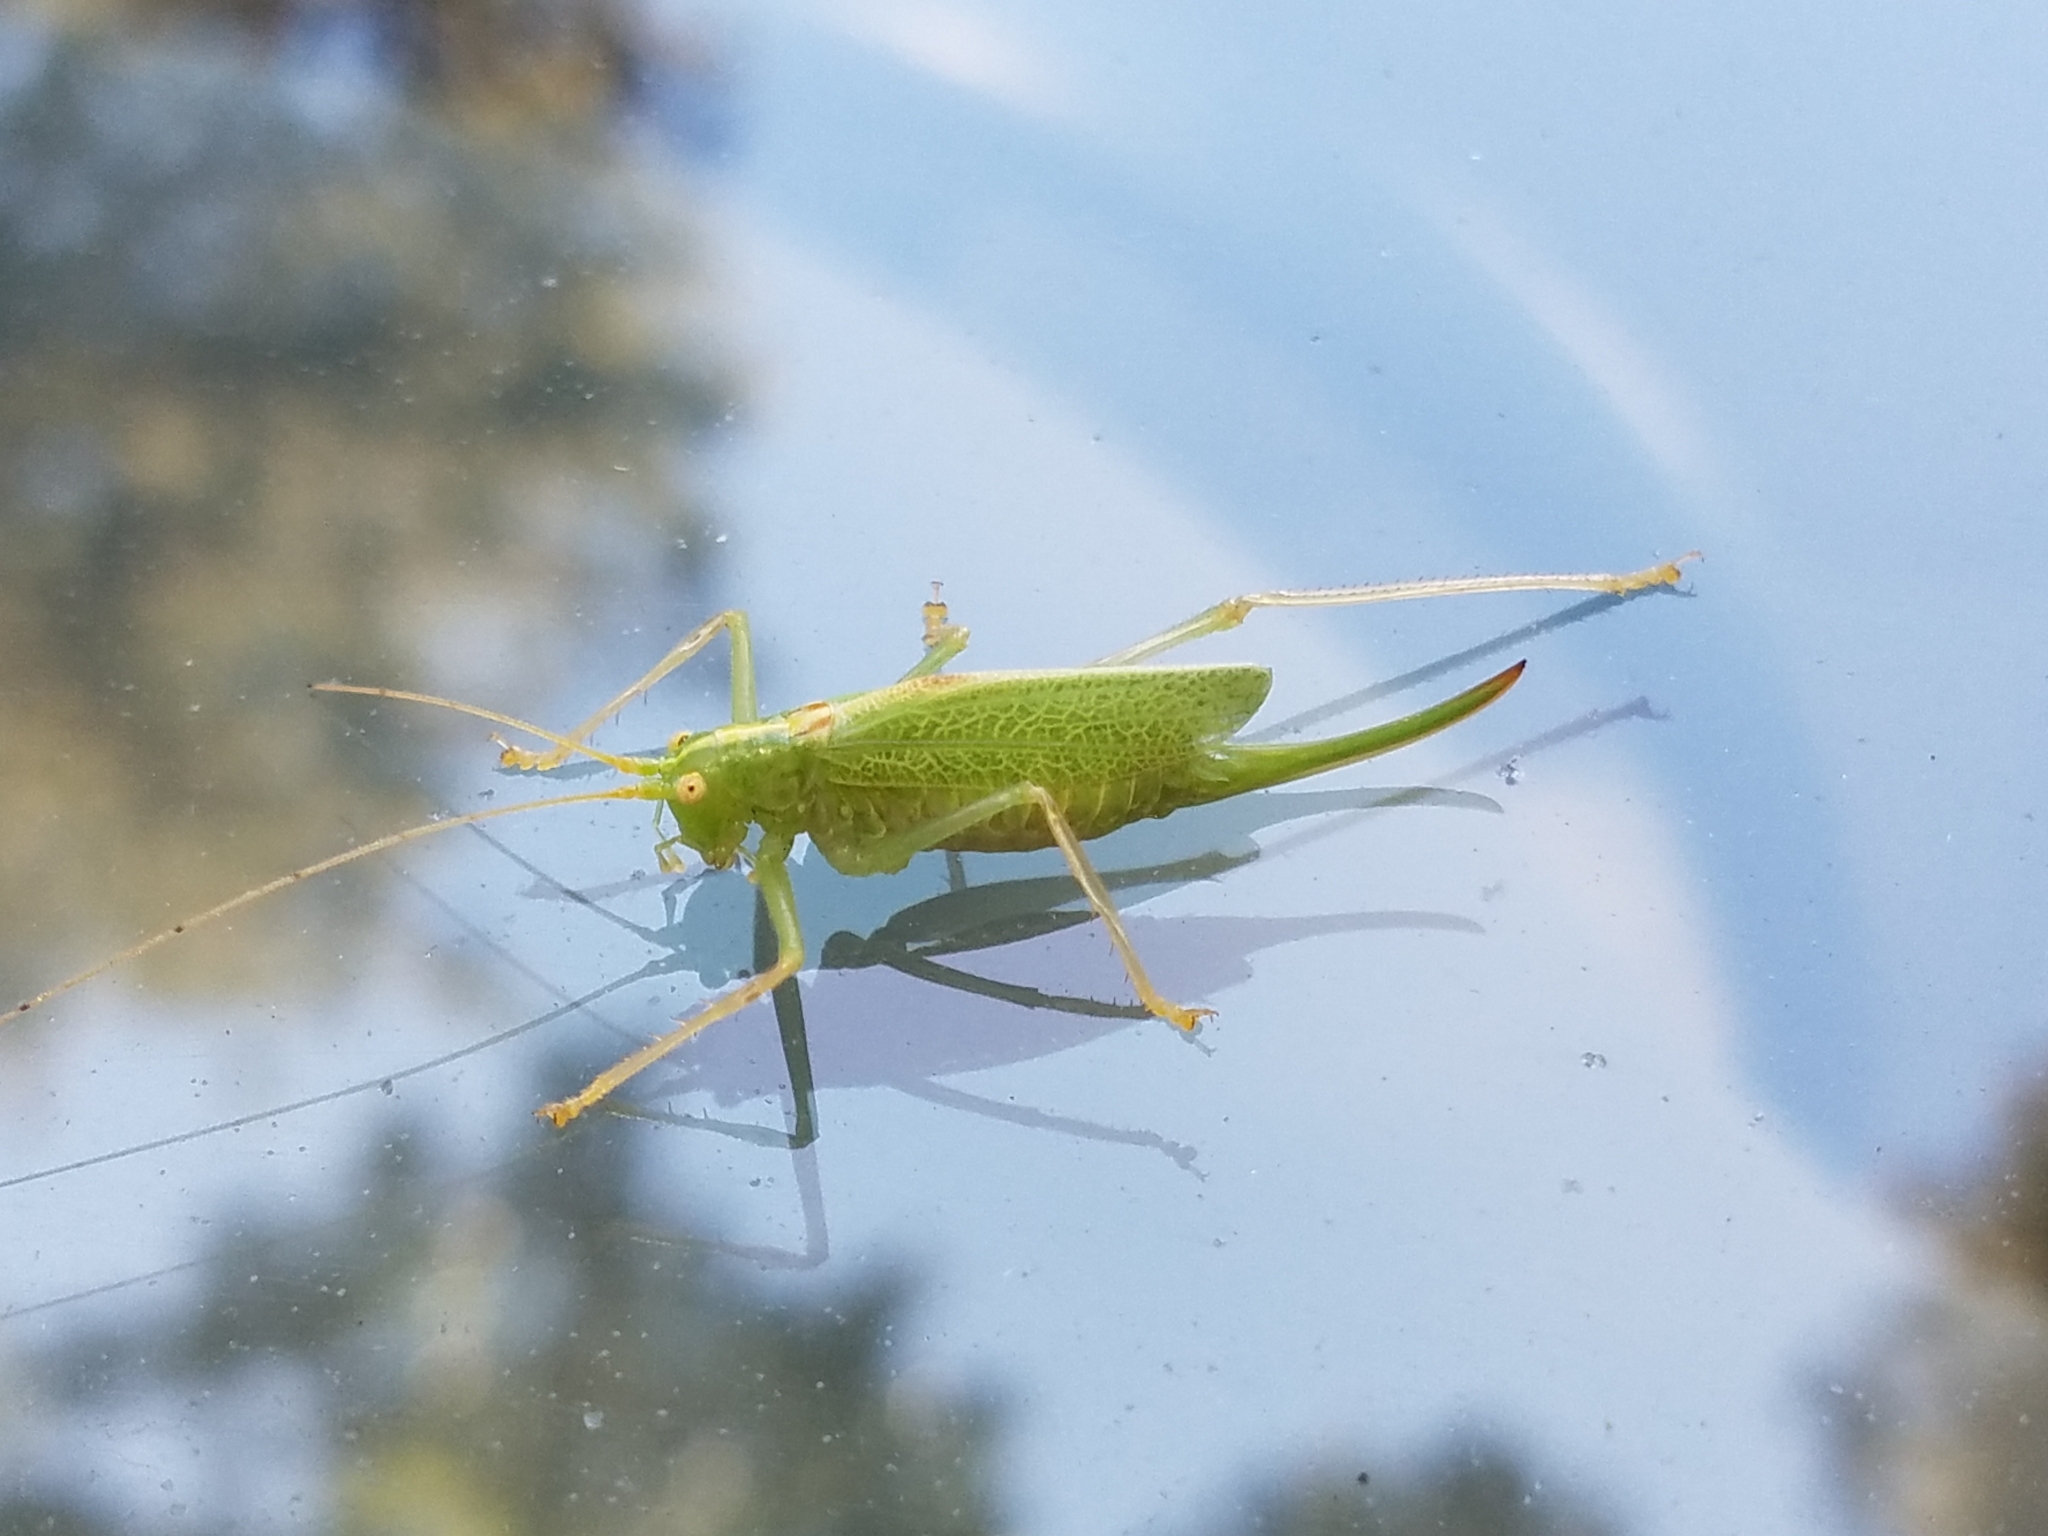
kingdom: Animalia
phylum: Arthropoda
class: Insecta
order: Orthoptera
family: Tettigoniidae
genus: Meconema
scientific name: Meconema thalassinum
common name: Oak bush-cricket
